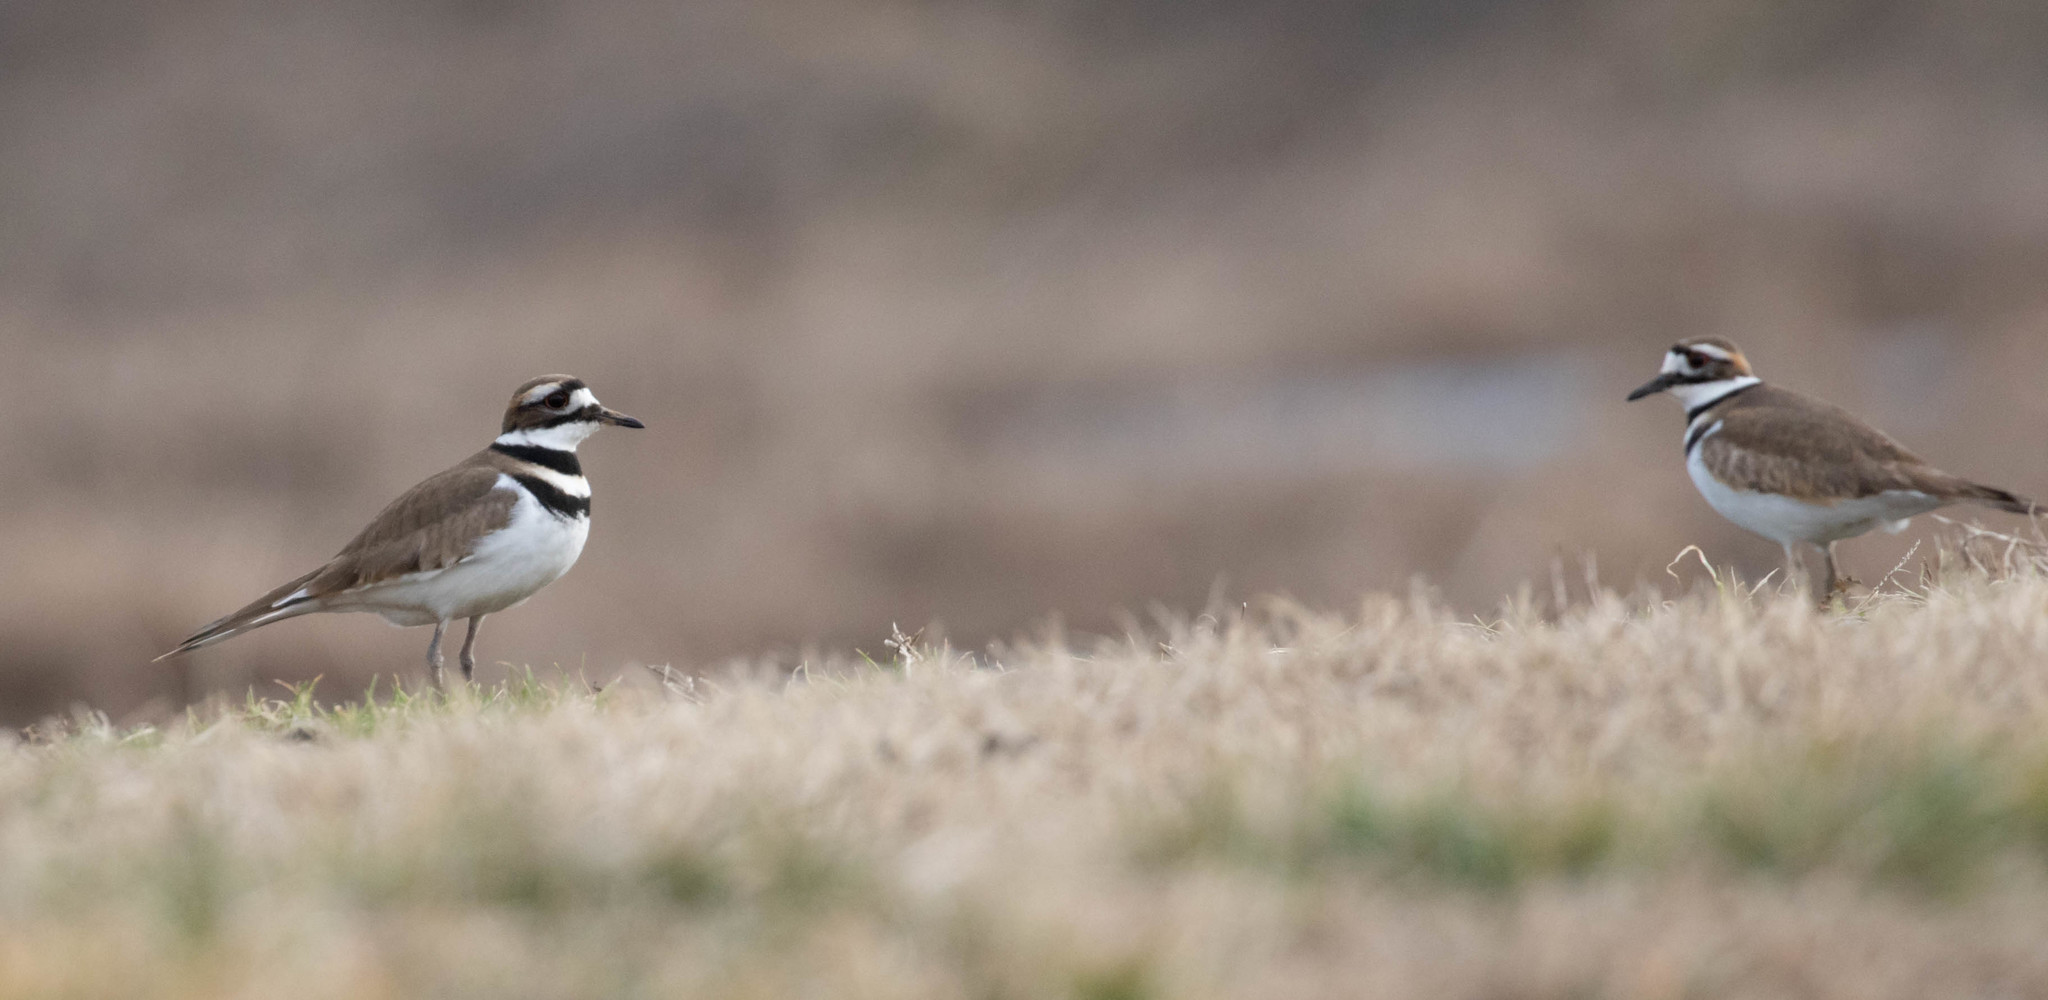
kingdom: Animalia
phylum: Chordata
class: Aves
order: Charadriiformes
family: Charadriidae
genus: Charadrius
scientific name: Charadrius vociferus
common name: Killdeer
